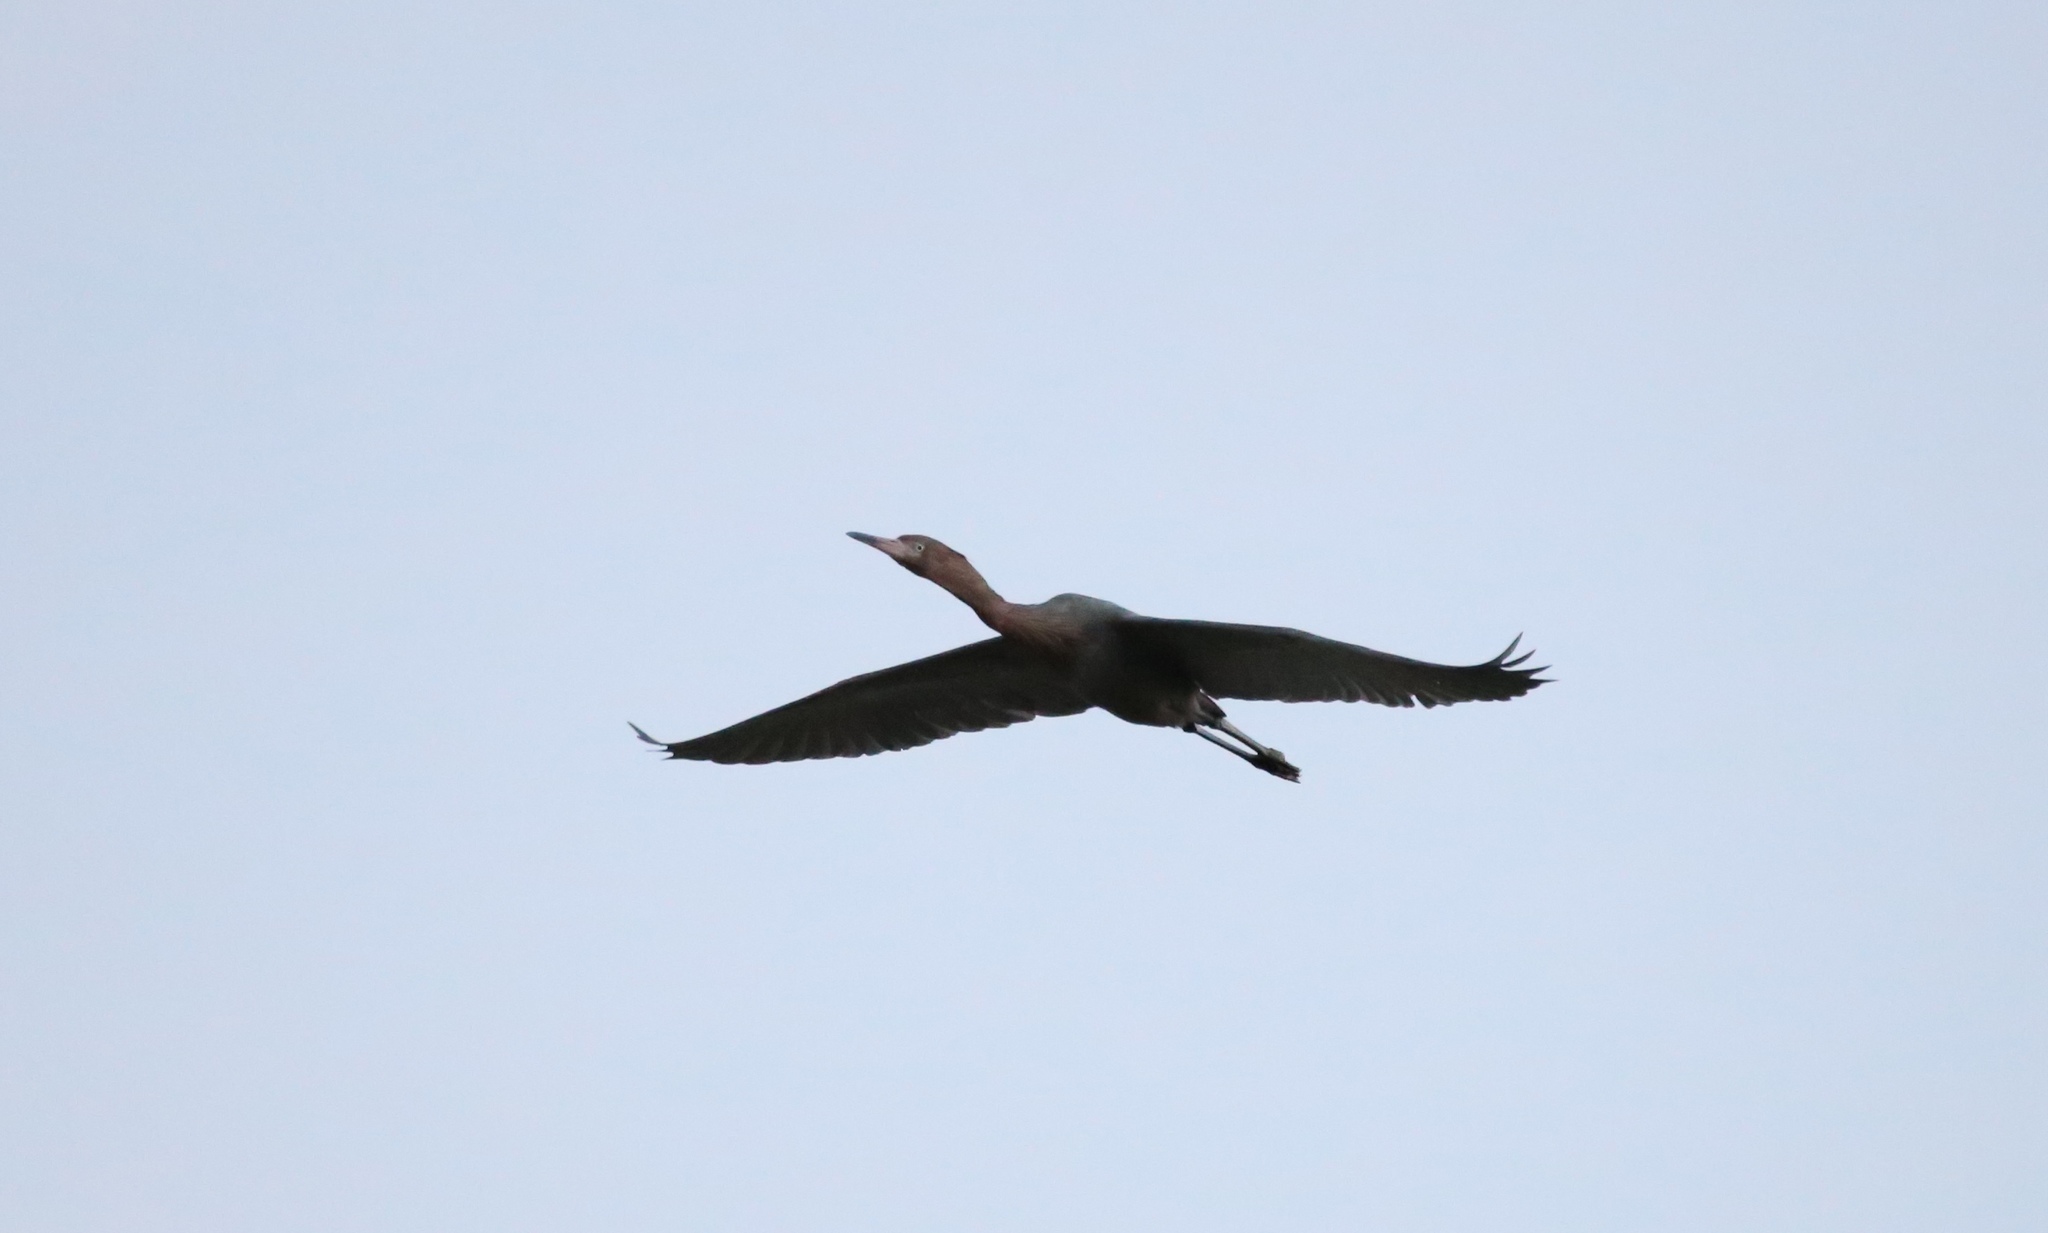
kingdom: Animalia
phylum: Chordata
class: Aves
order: Pelecaniformes
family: Ardeidae
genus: Egretta
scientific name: Egretta rufescens
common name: Reddish egret
